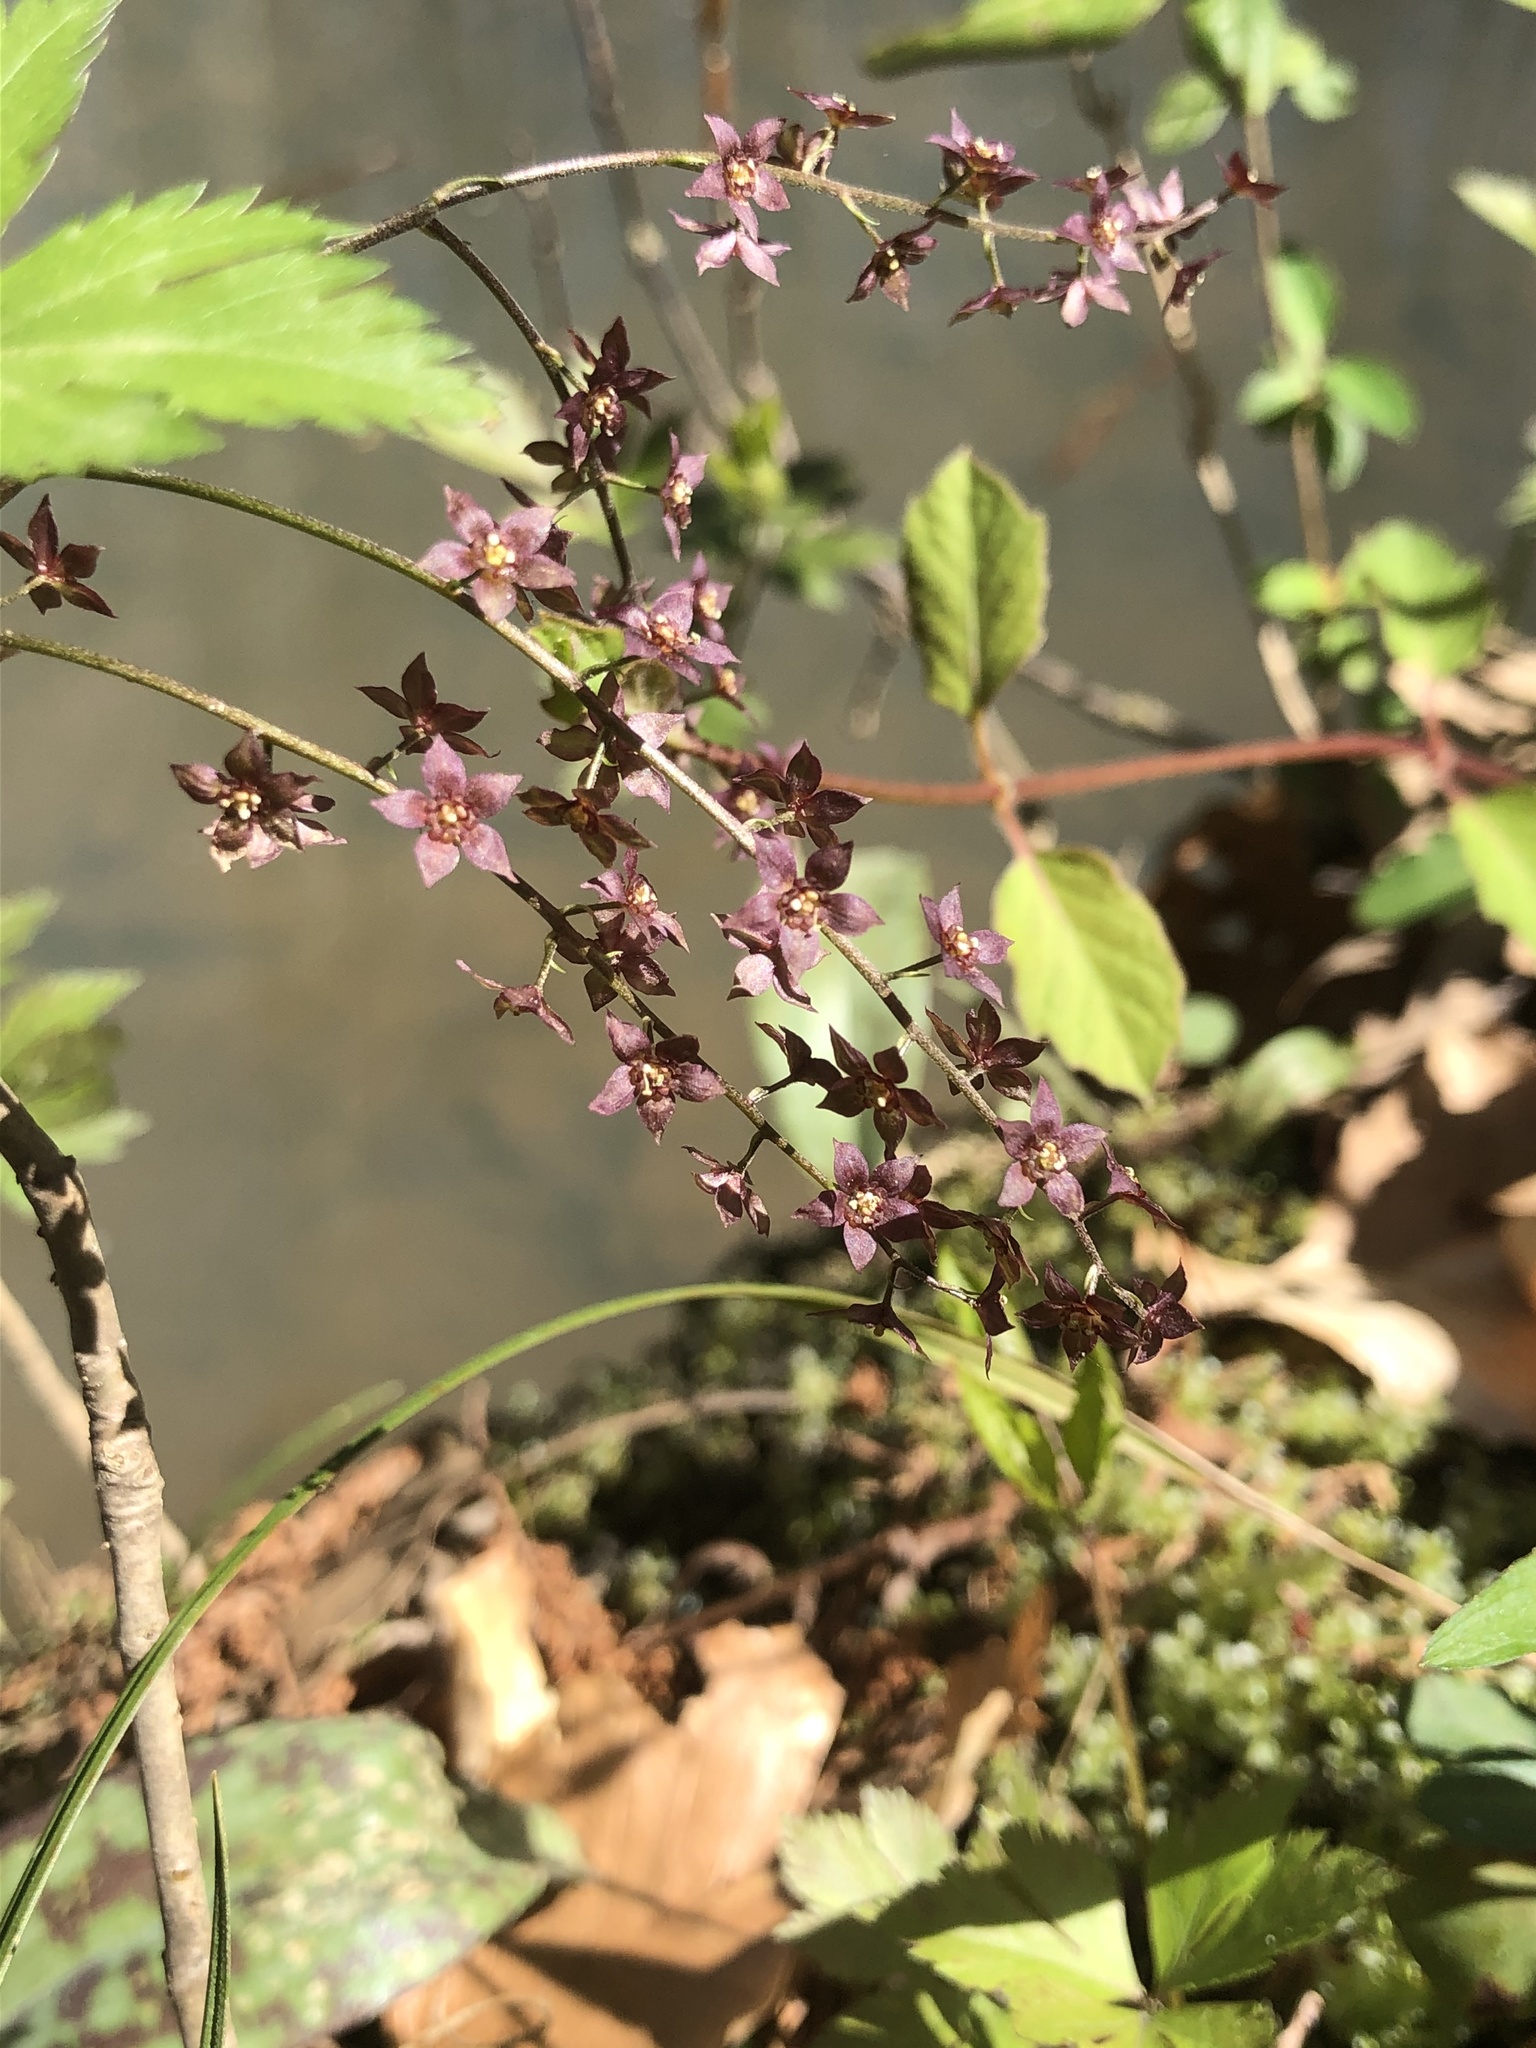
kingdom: Plantae
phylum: Tracheophyta
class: Magnoliopsida
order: Ranunculales
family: Ranunculaceae
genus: Xanthorhiza
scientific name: Xanthorhiza simplicissima
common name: Yellowroot
